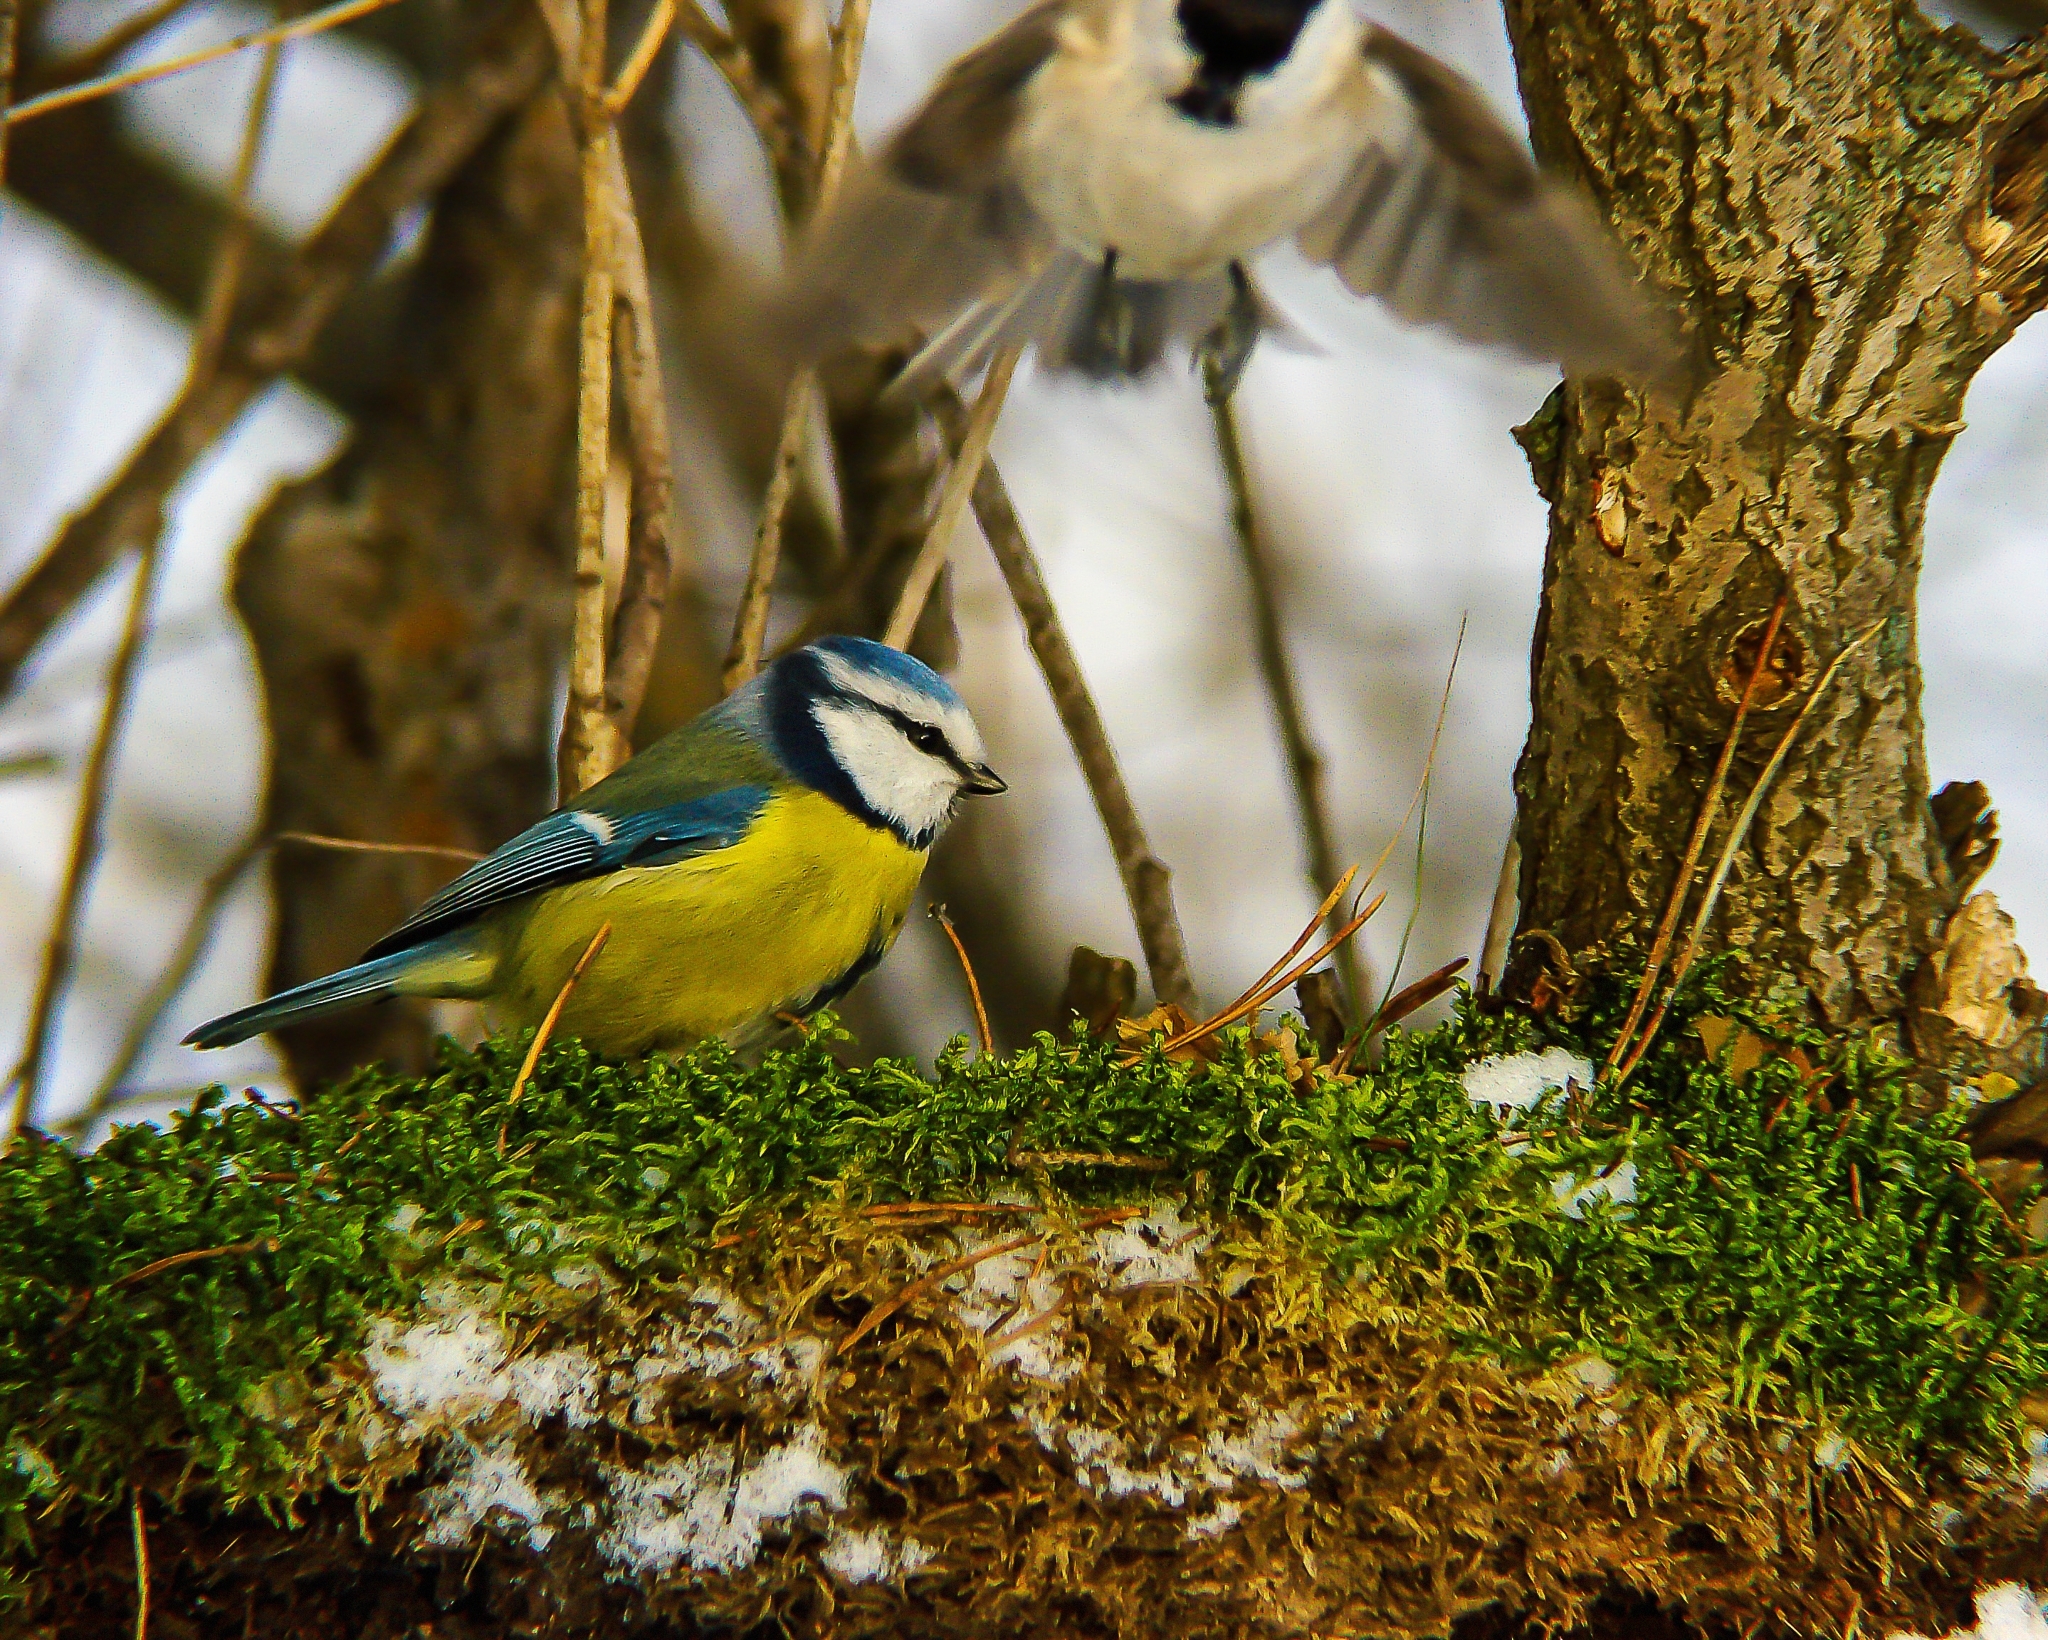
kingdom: Animalia
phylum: Chordata
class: Aves
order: Passeriformes
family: Paridae
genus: Cyanistes
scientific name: Cyanistes caeruleus
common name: Eurasian blue tit
